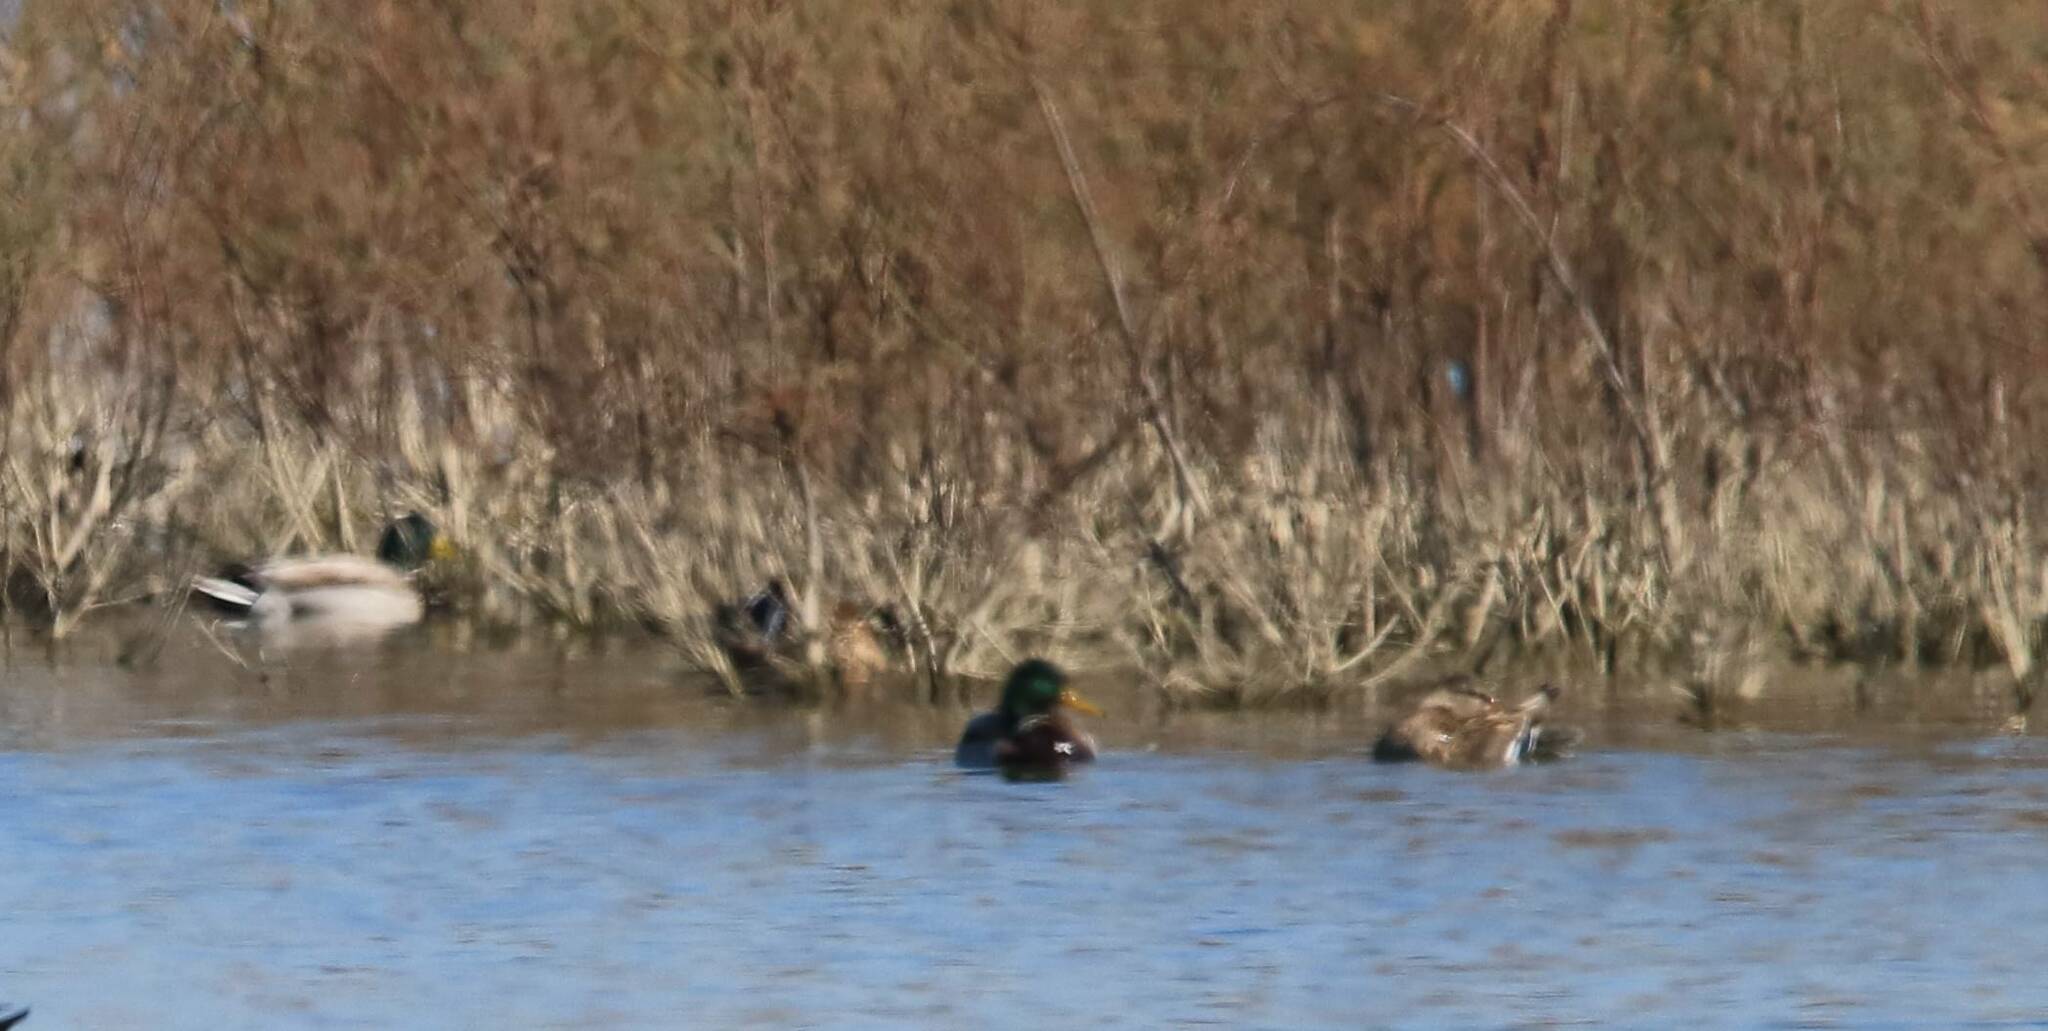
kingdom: Animalia
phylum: Chordata
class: Aves
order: Anseriformes
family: Anatidae
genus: Anas
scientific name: Anas platyrhynchos
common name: Mallard
